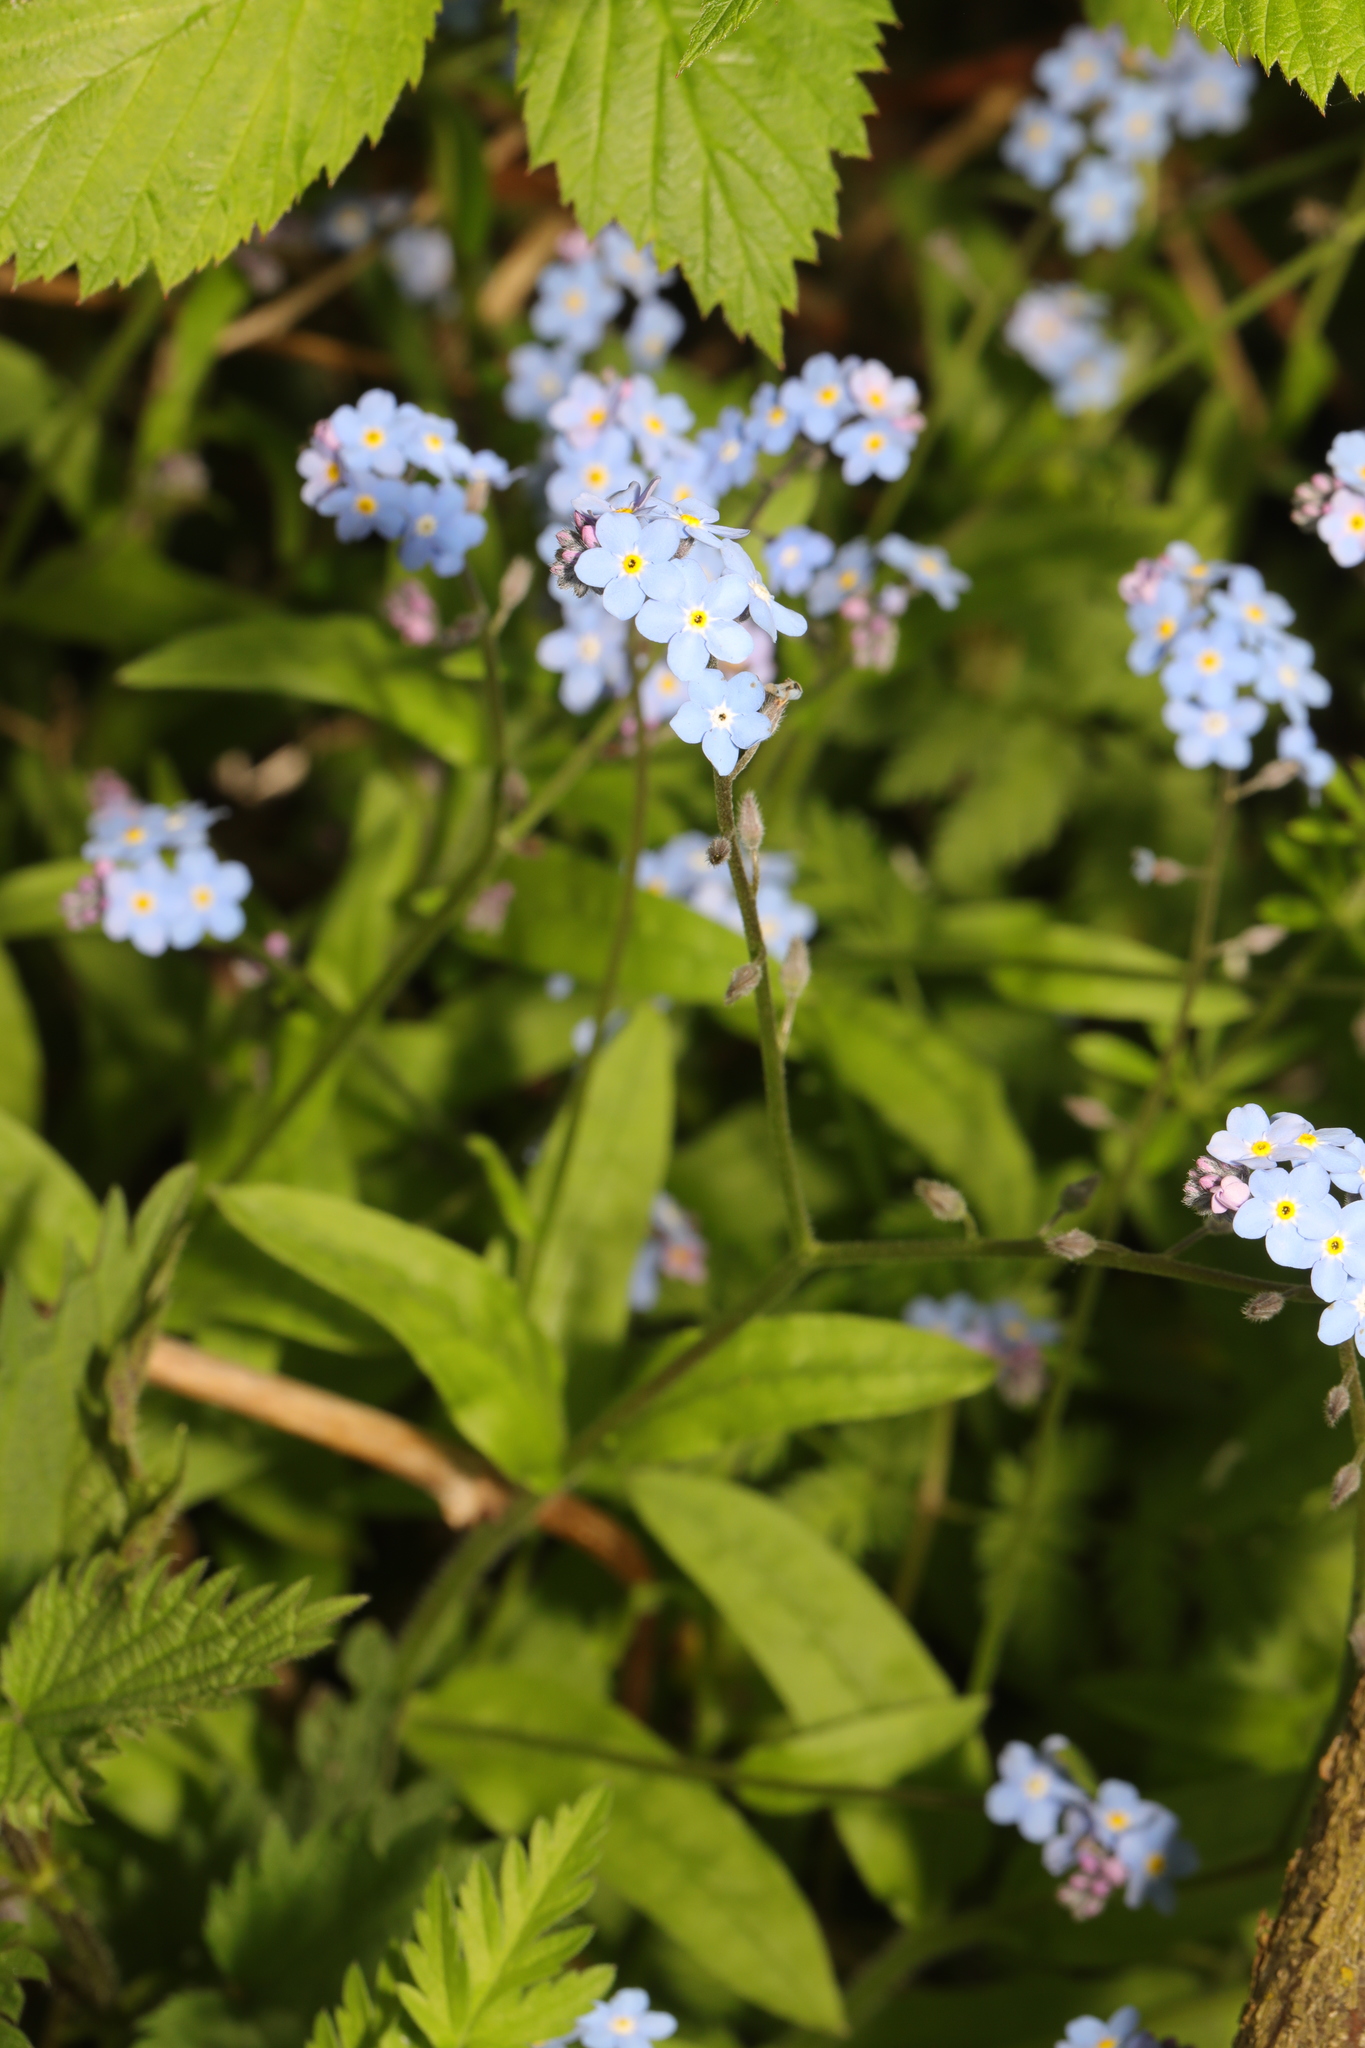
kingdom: Plantae
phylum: Tracheophyta
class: Magnoliopsida
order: Boraginales
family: Boraginaceae
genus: Myosotis
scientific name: Myosotis sylvatica
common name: Wood forget-me-not
